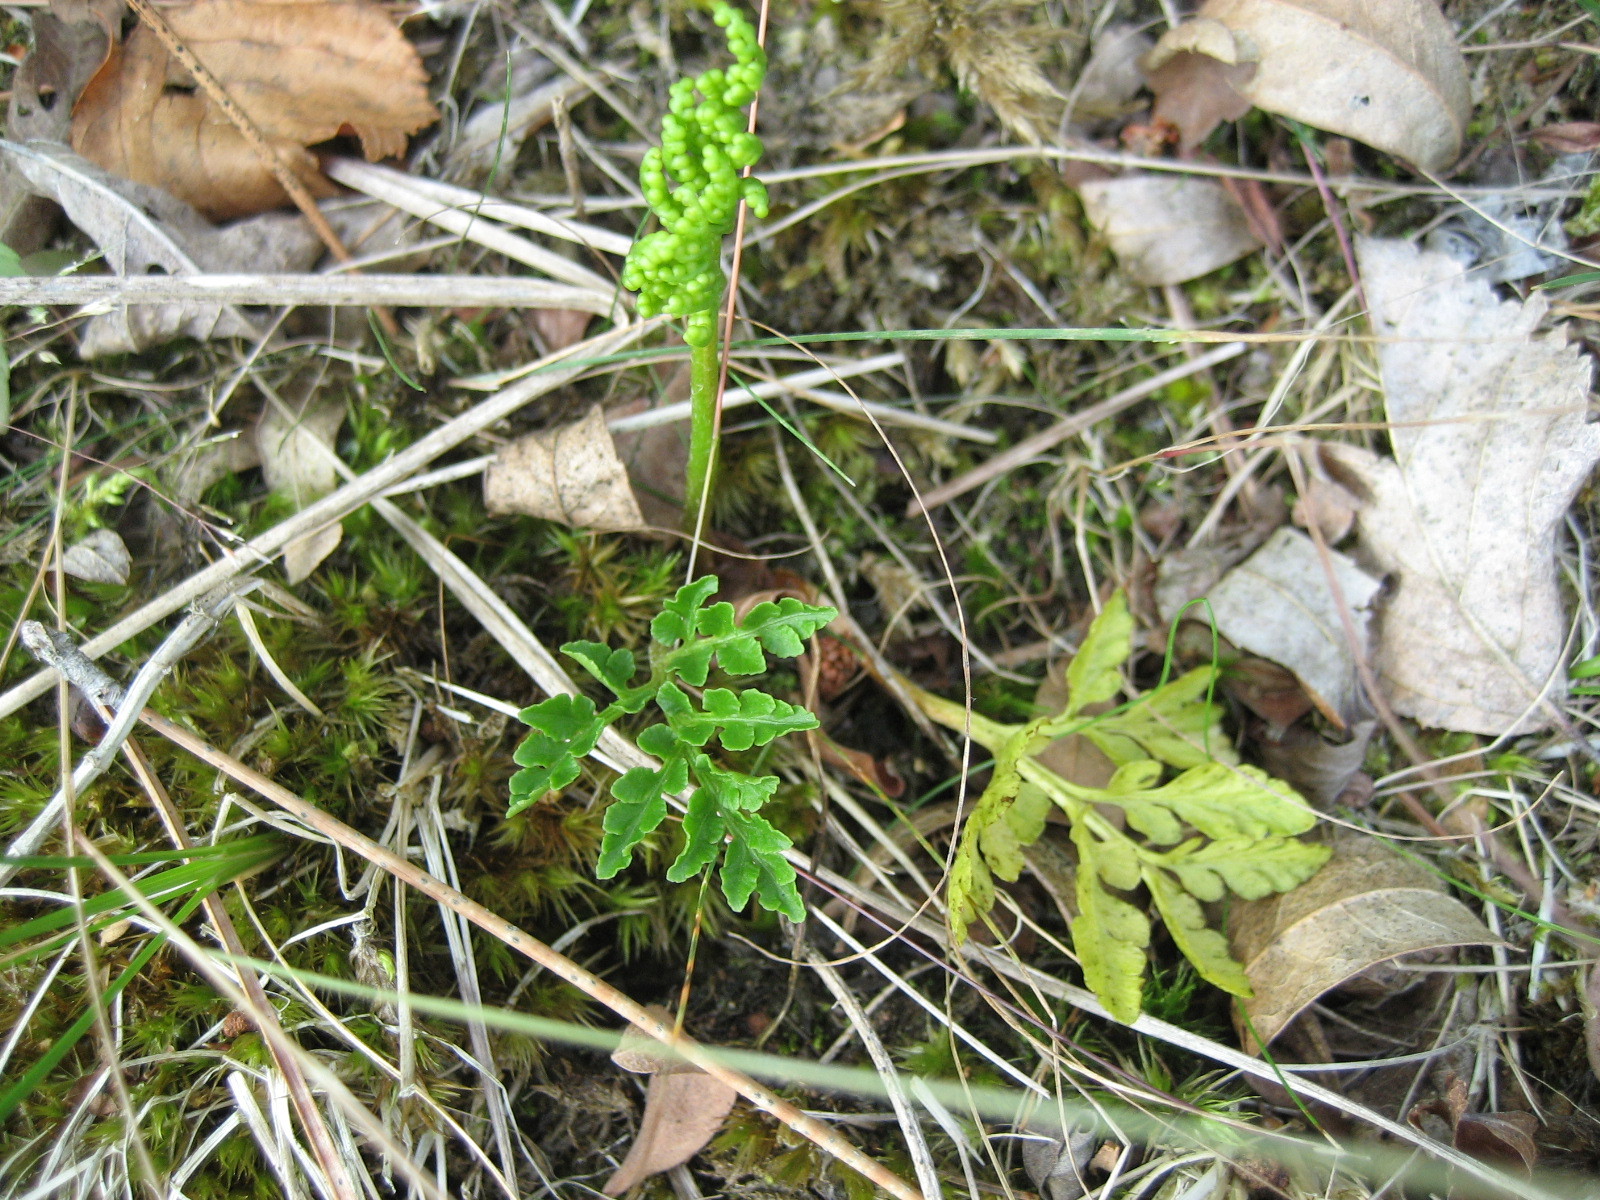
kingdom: Plantae
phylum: Tracheophyta
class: Polypodiopsida
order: Ophioglossales
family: Ophioglossaceae
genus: Sceptridium
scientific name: Sceptridium multifidum
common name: Leathery grape fern
